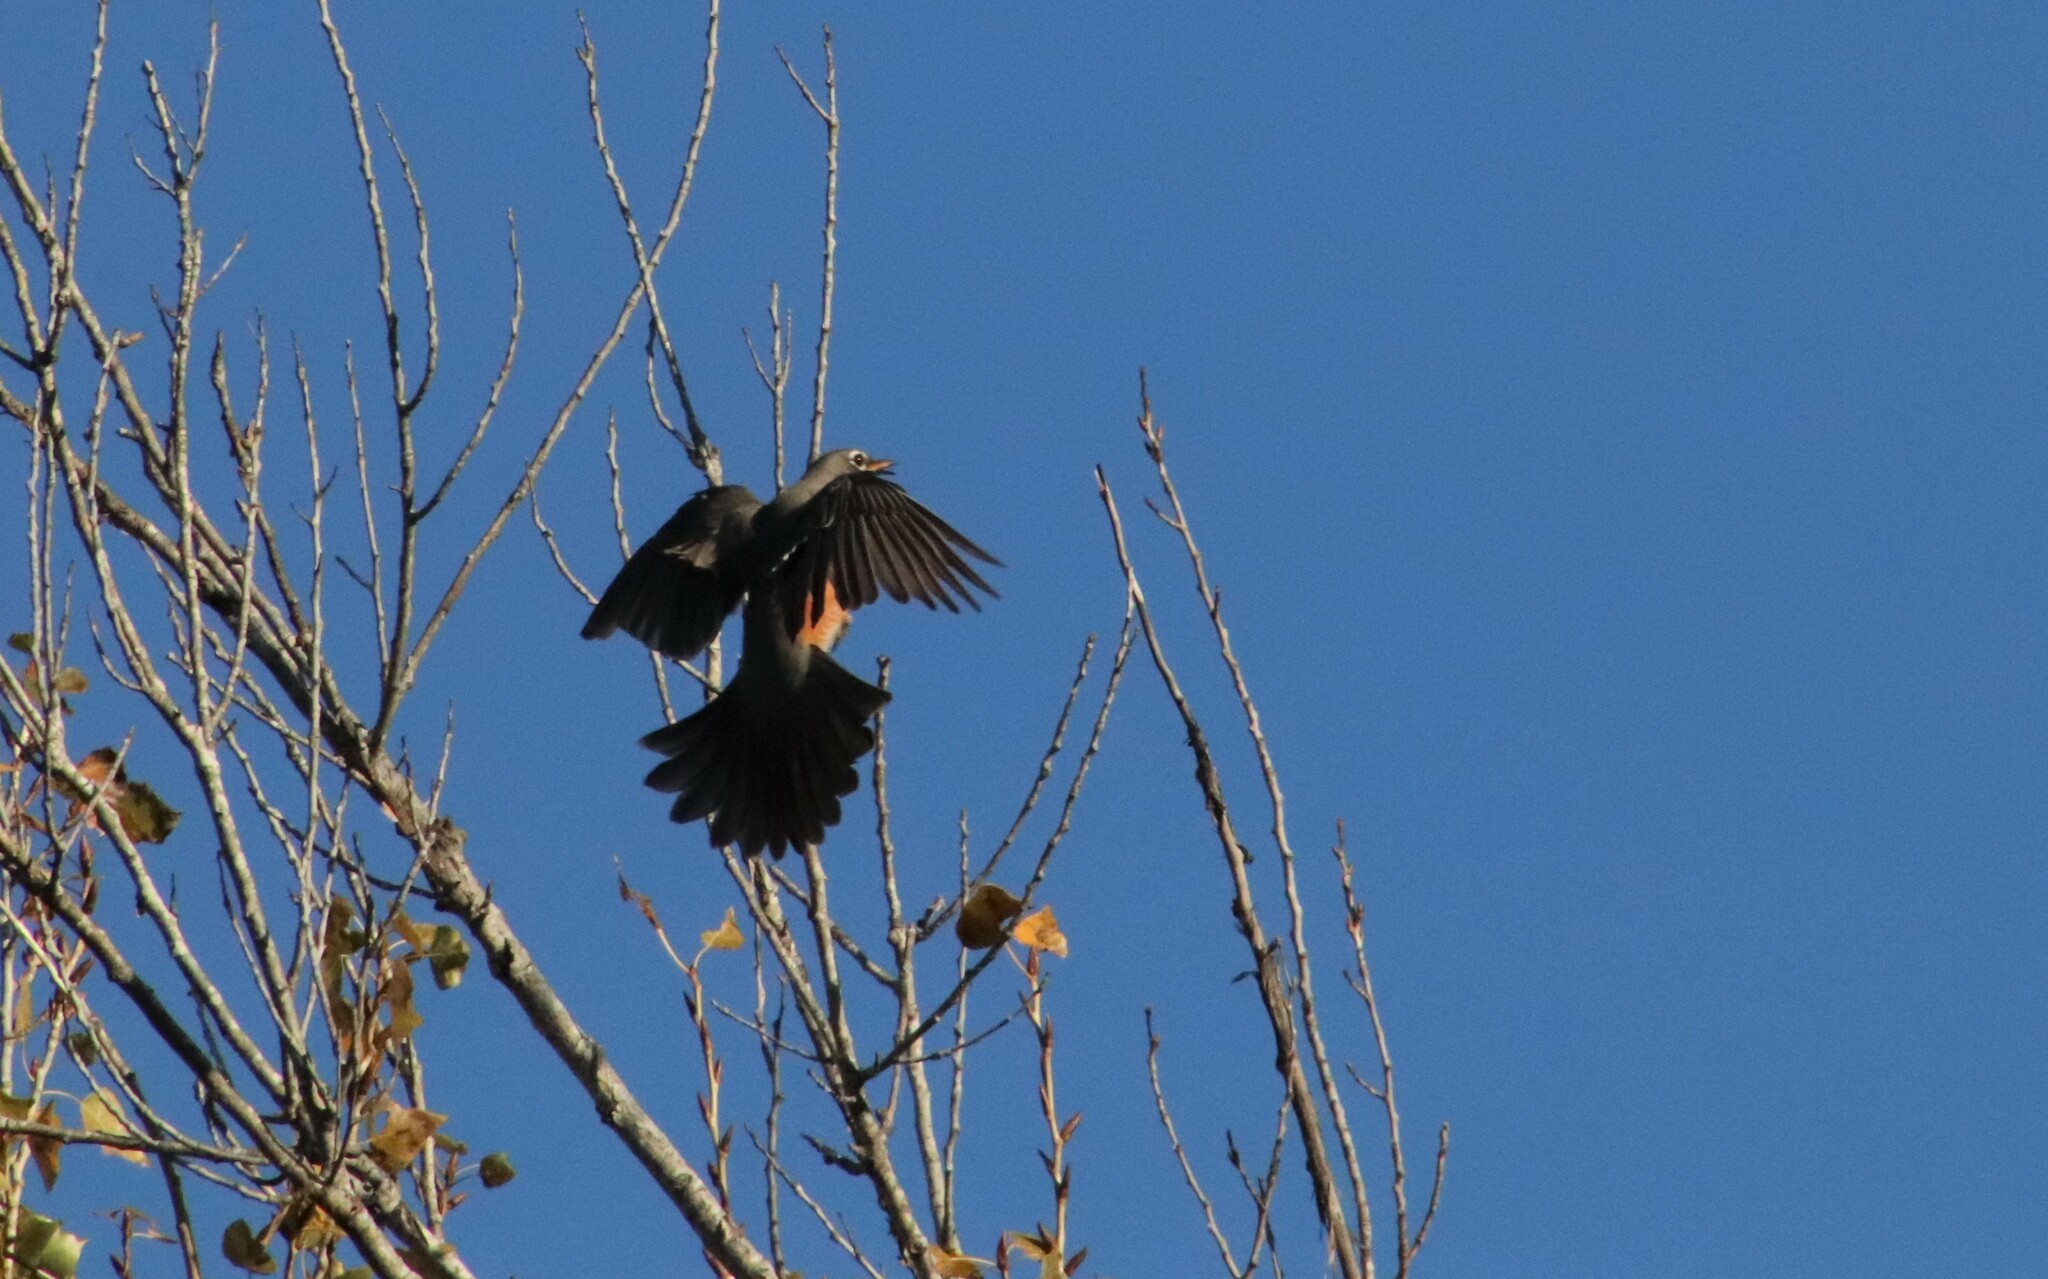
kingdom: Animalia
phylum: Chordata
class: Aves
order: Passeriformes
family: Turdidae
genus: Turdus
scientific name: Turdus migratorius
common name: American robin
